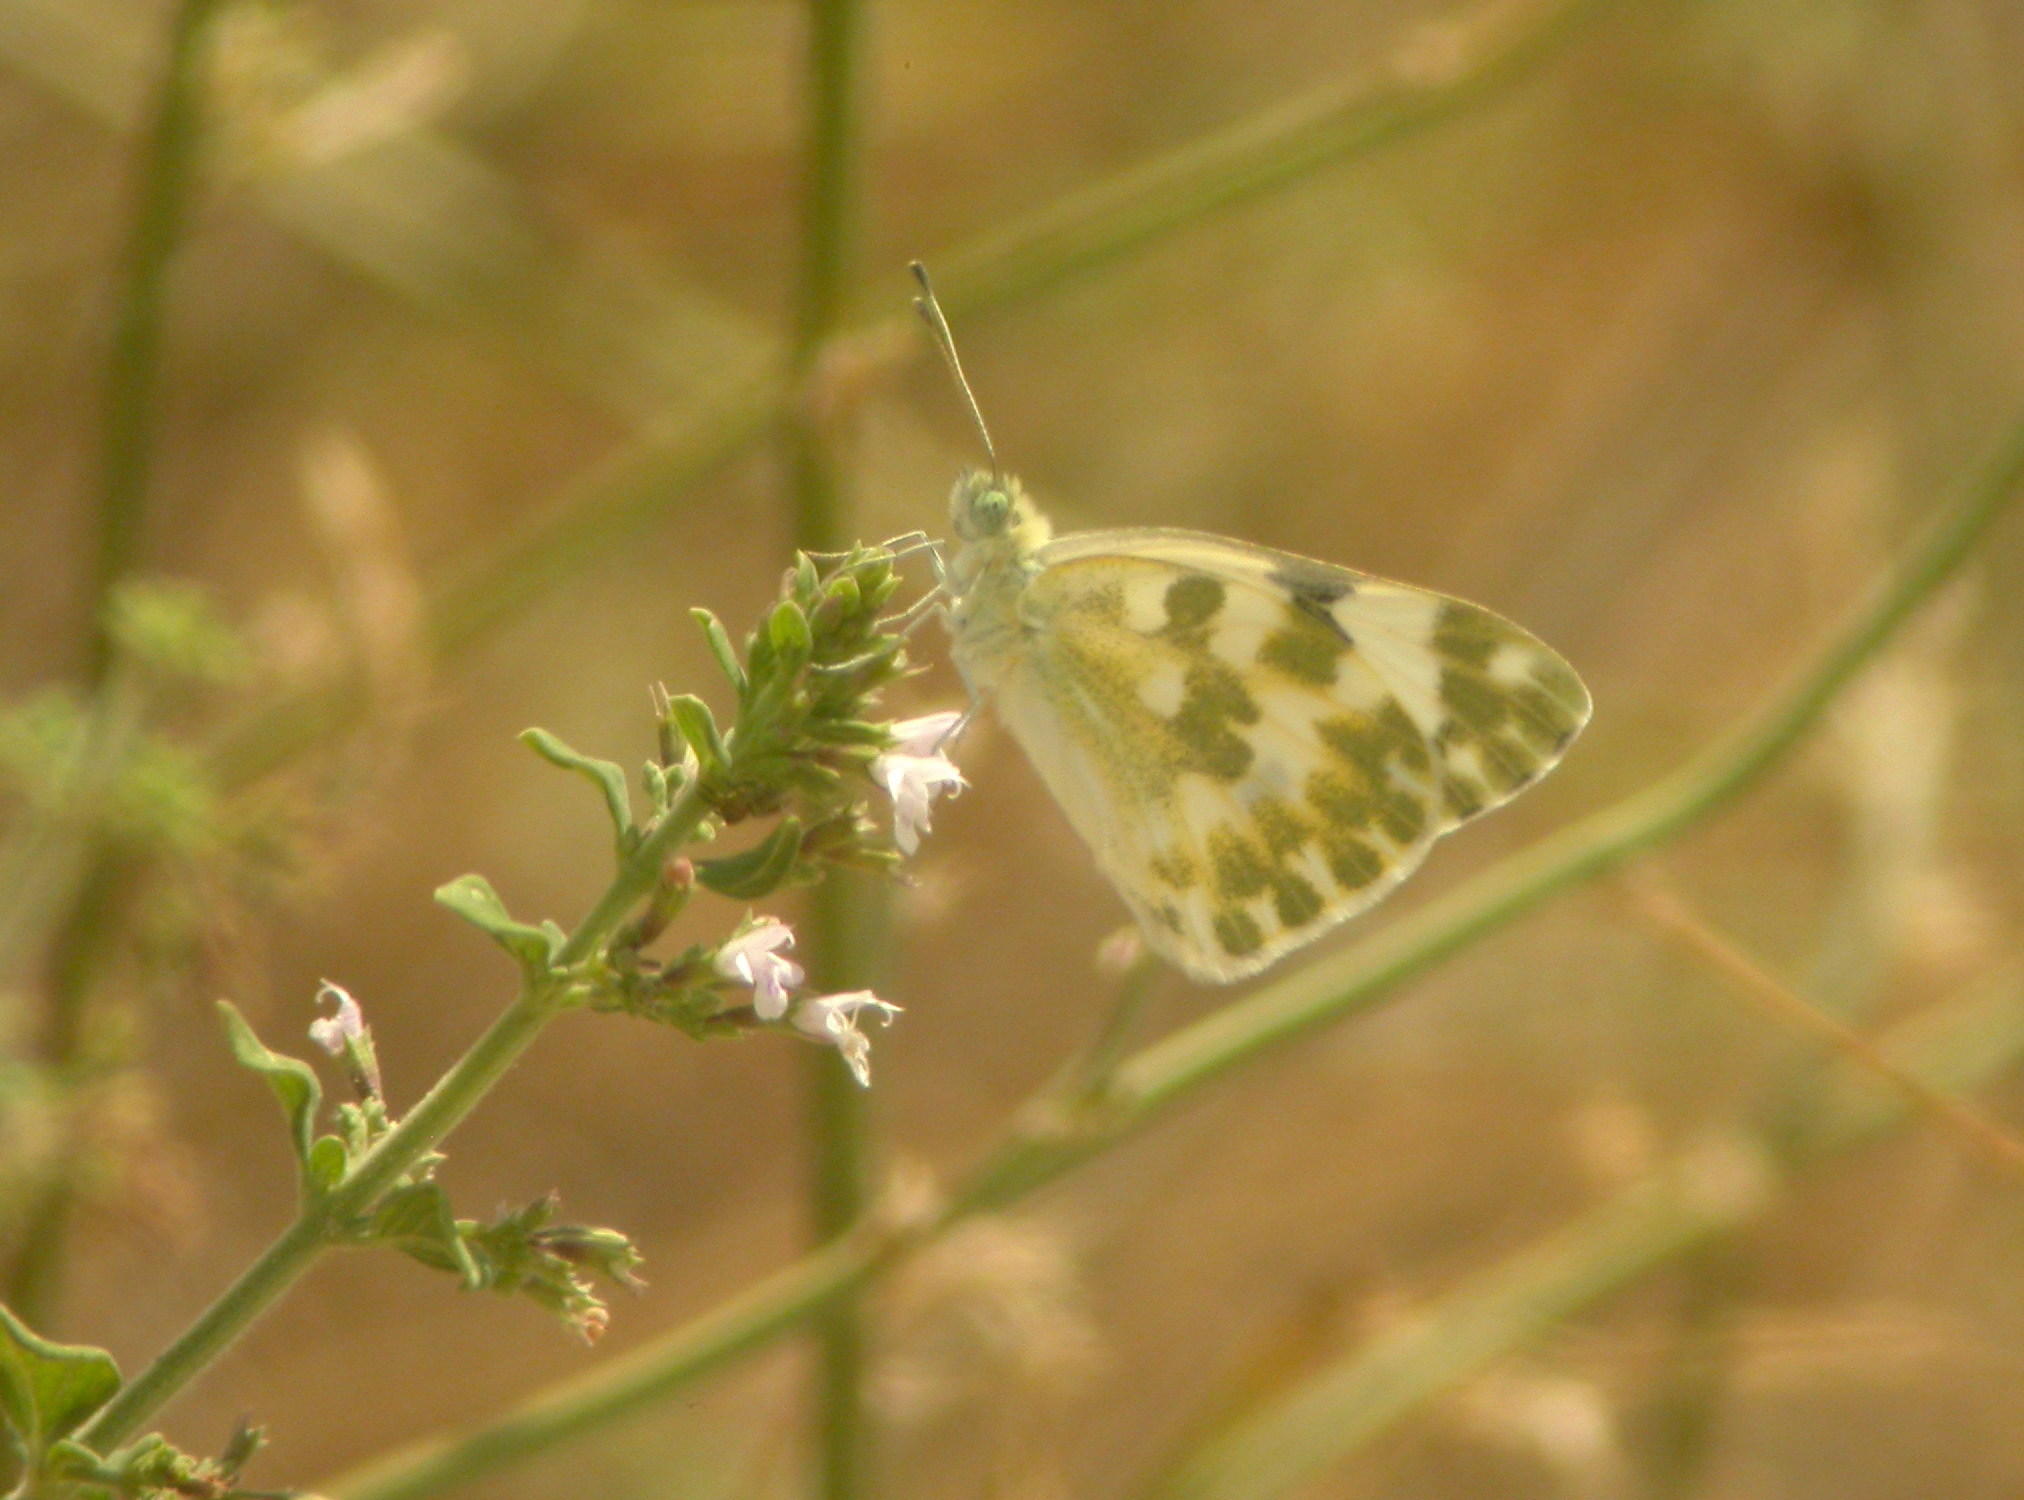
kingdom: Animalia
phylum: Arthropoda
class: Insecta
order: Lepidoptera
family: Pieridae
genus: Pontia
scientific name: Pontia daplidice
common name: Bath white
